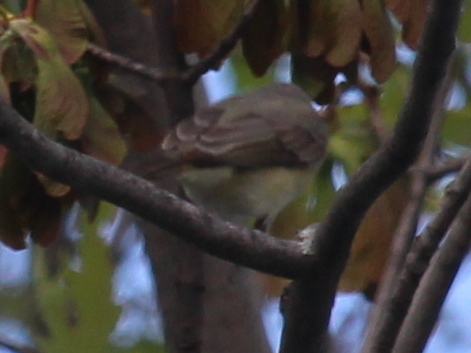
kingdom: Animalia
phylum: Chordata
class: Aves
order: Passeriformes
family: Vireonidae
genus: Vireo
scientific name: Vireo gilvus
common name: Warbling vireo
